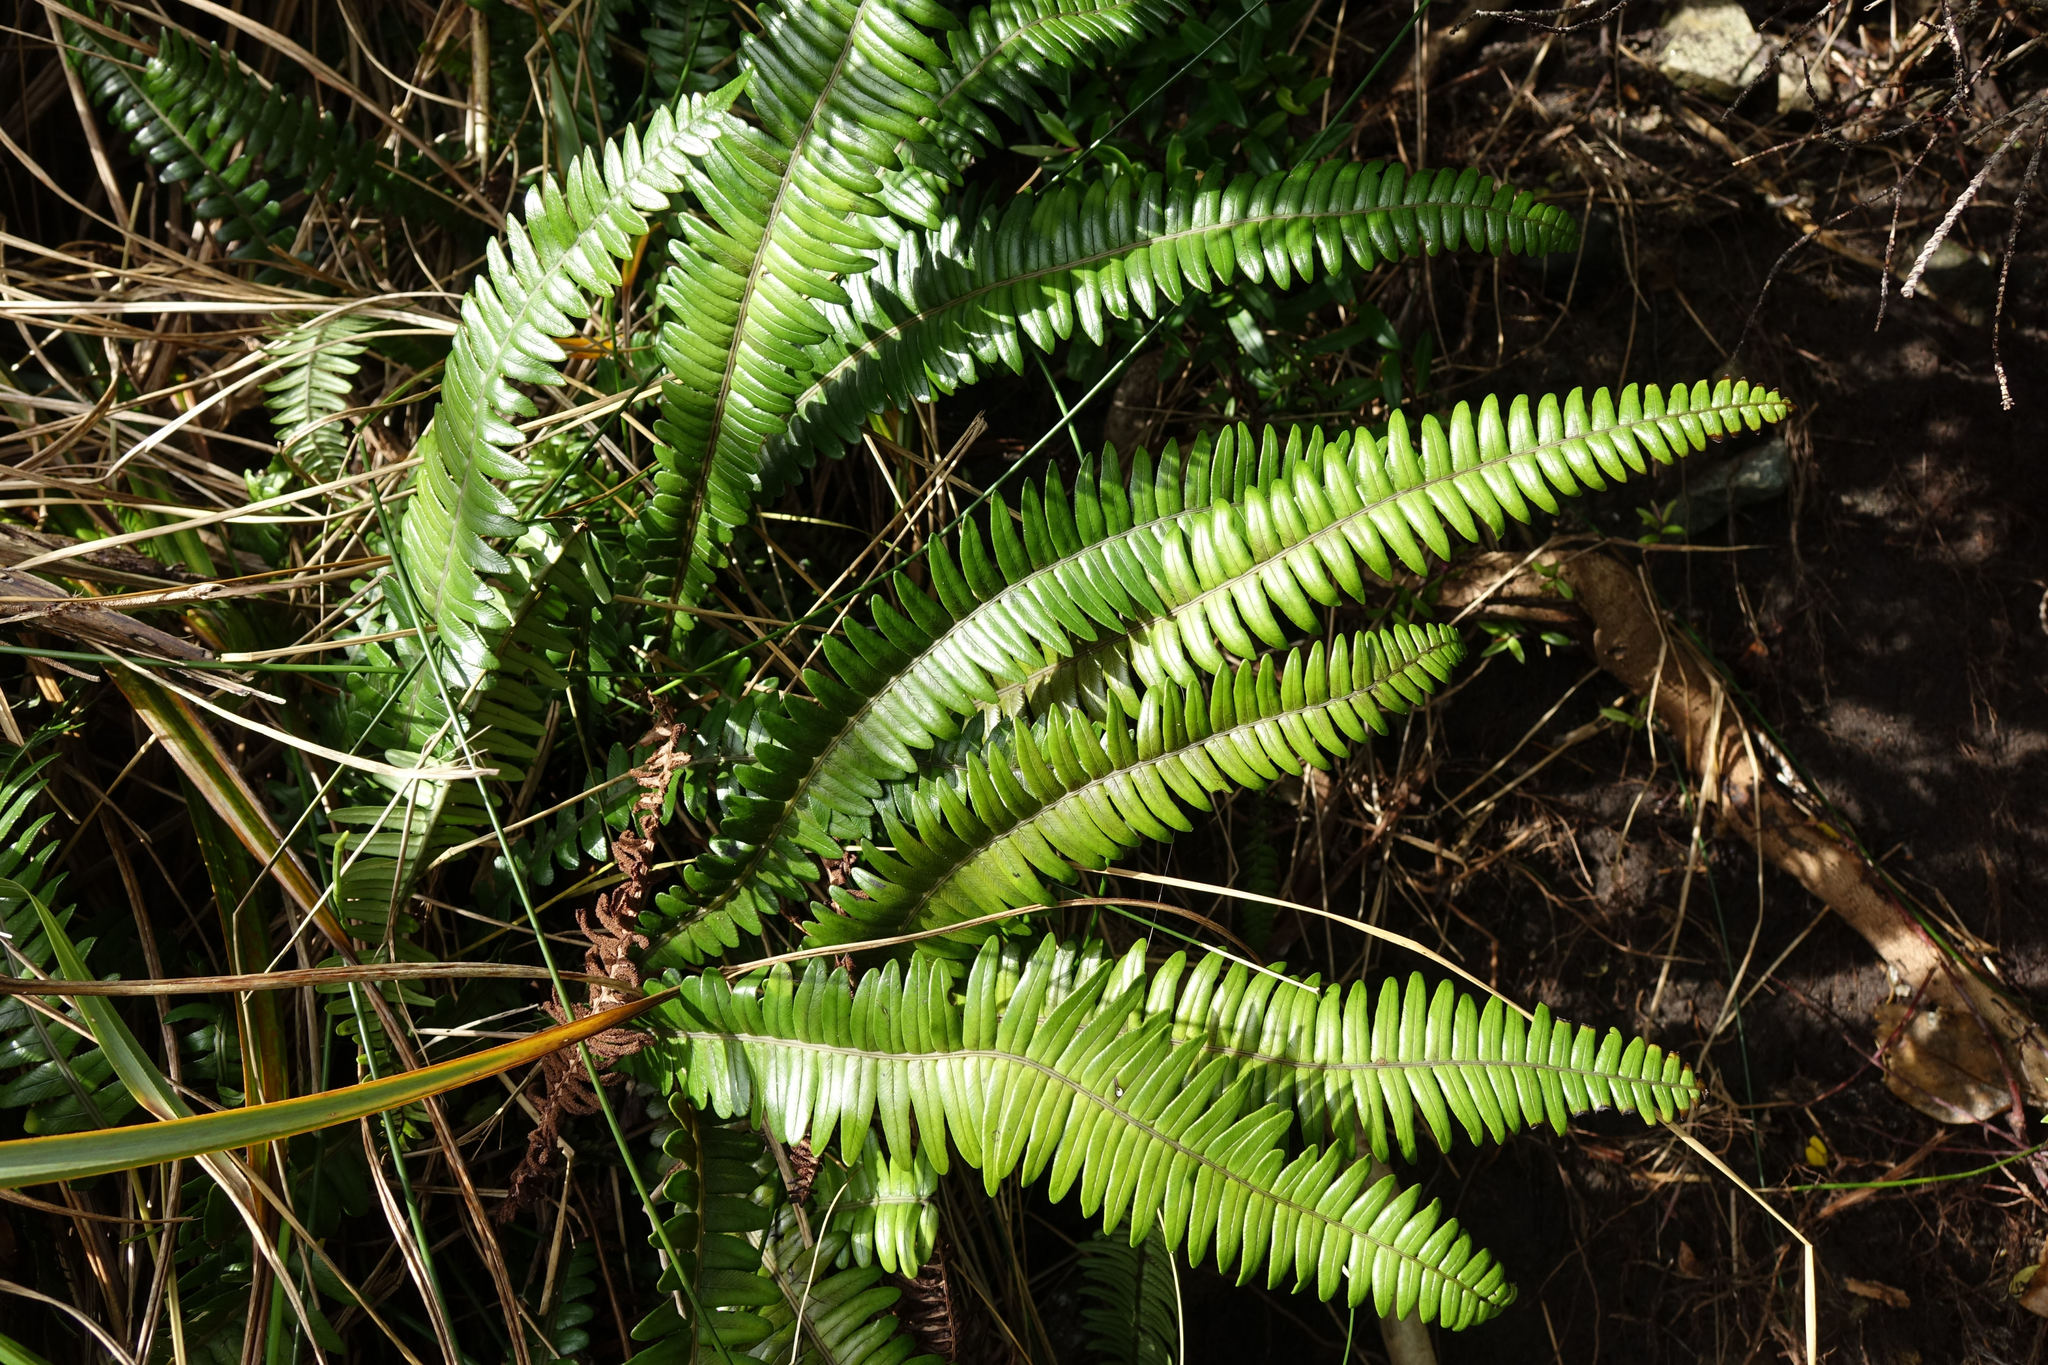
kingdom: Plantae
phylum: Tracheophyta
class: Polypodiopsida
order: Polypodiales
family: Blechnaceae
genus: Austroblechnum
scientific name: Austroblechnum durum
